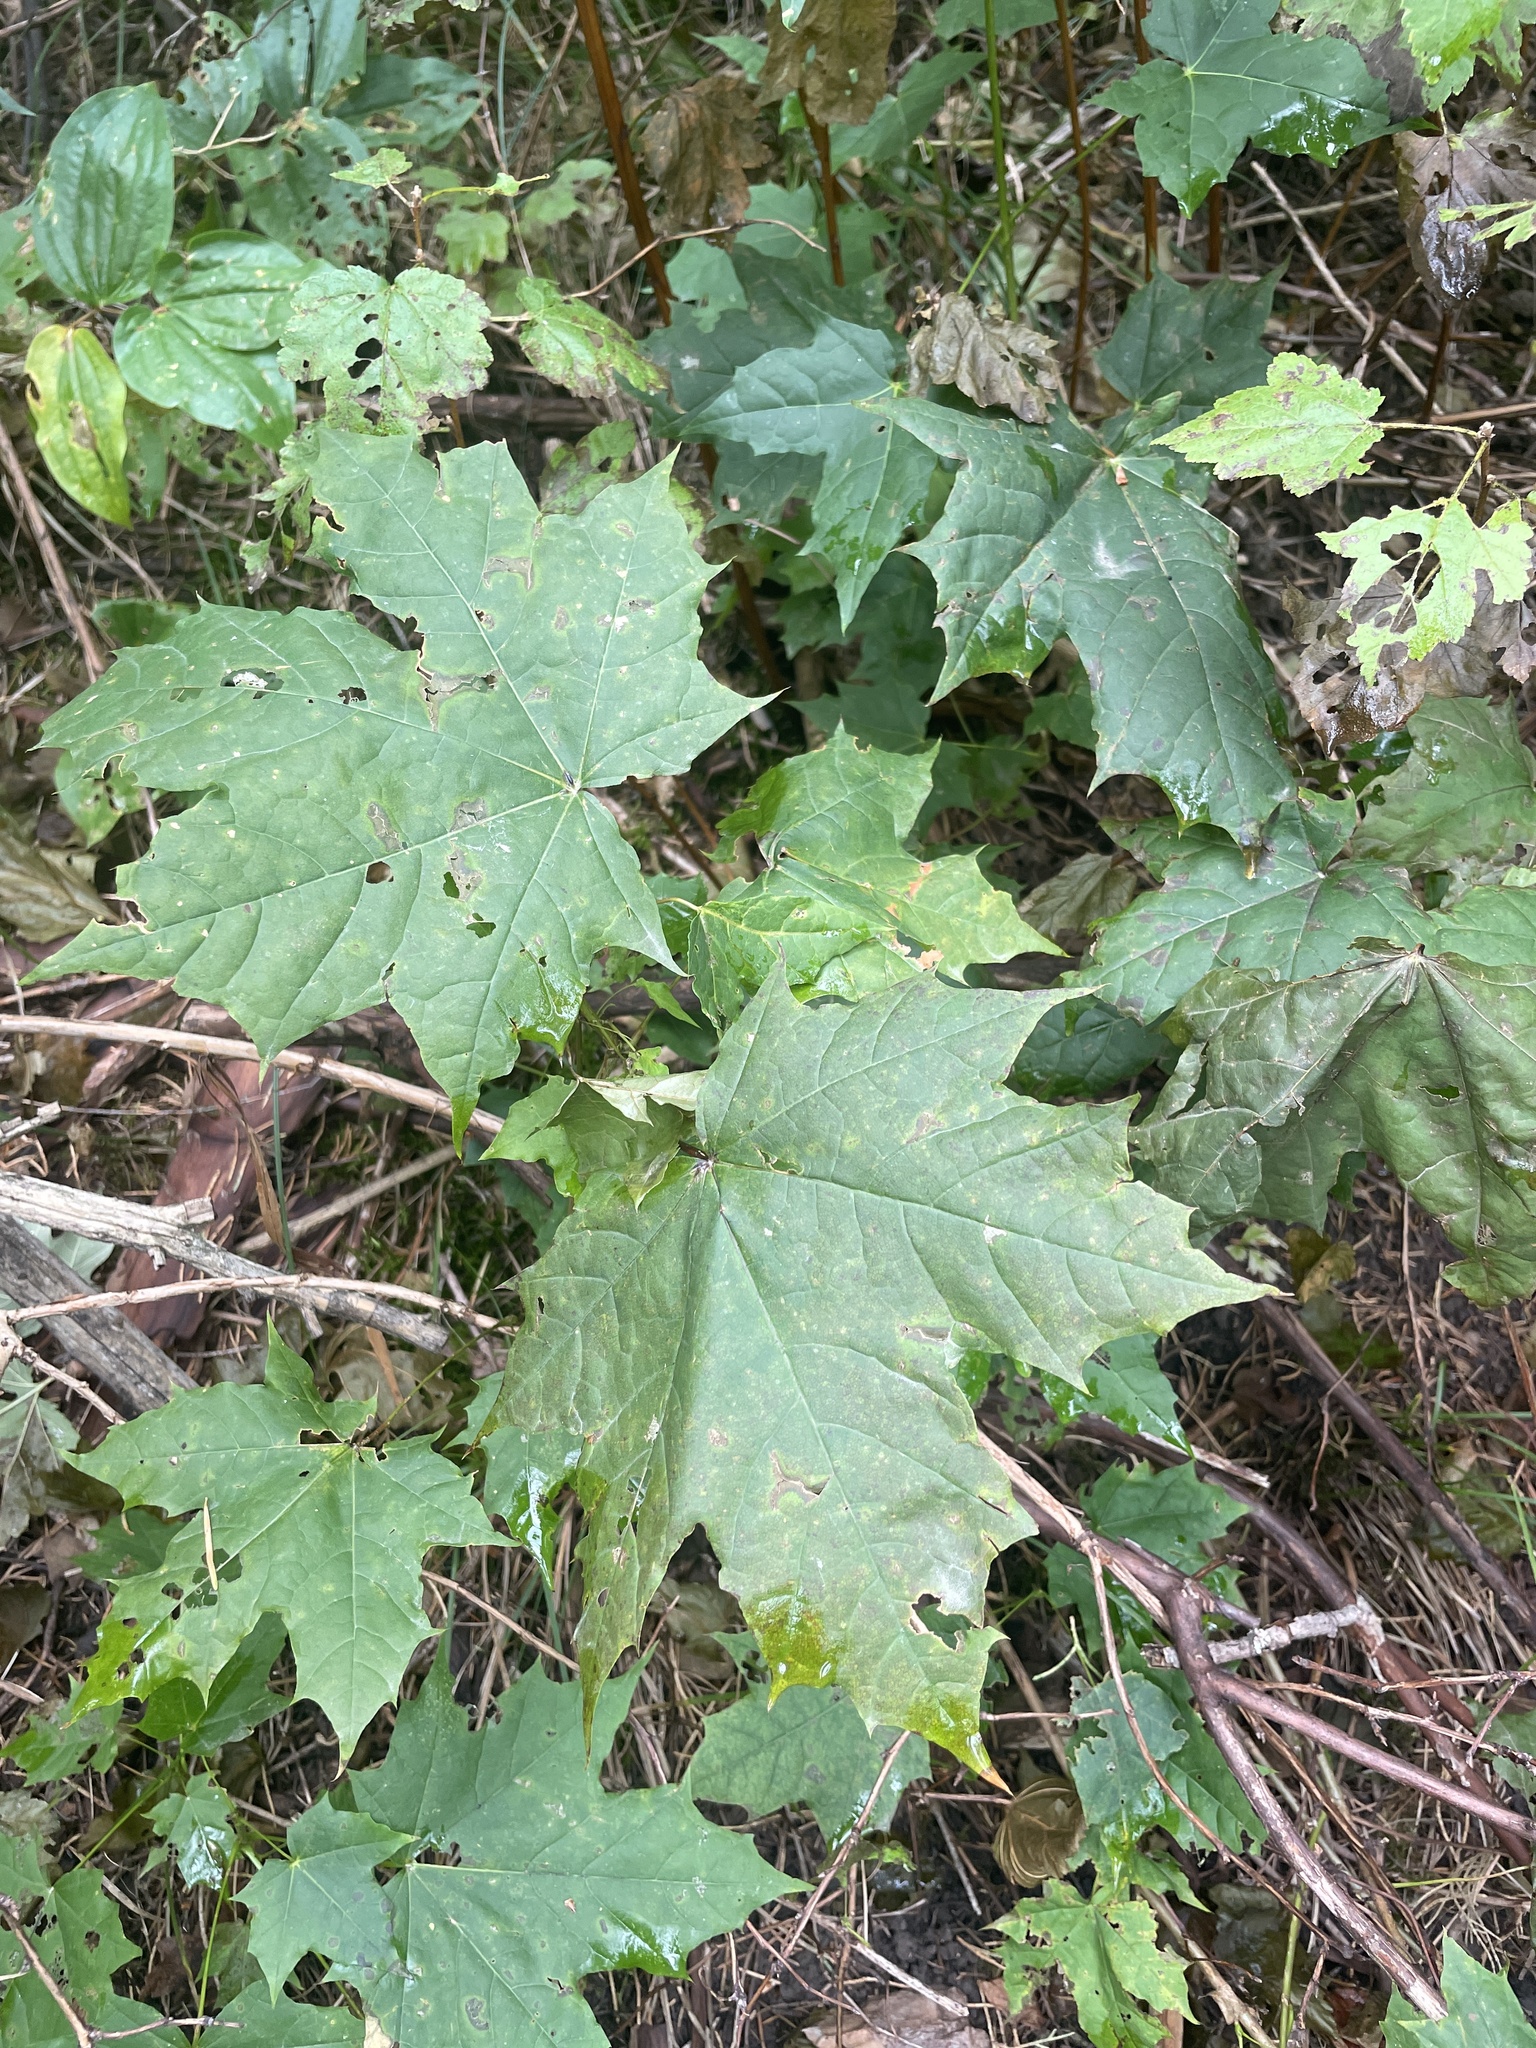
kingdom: Plantae
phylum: Tracheophyta
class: Magnoliopsida
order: Sapindales
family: Sapindaceae
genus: Acer
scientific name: Acer platanoides
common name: Norway maple
